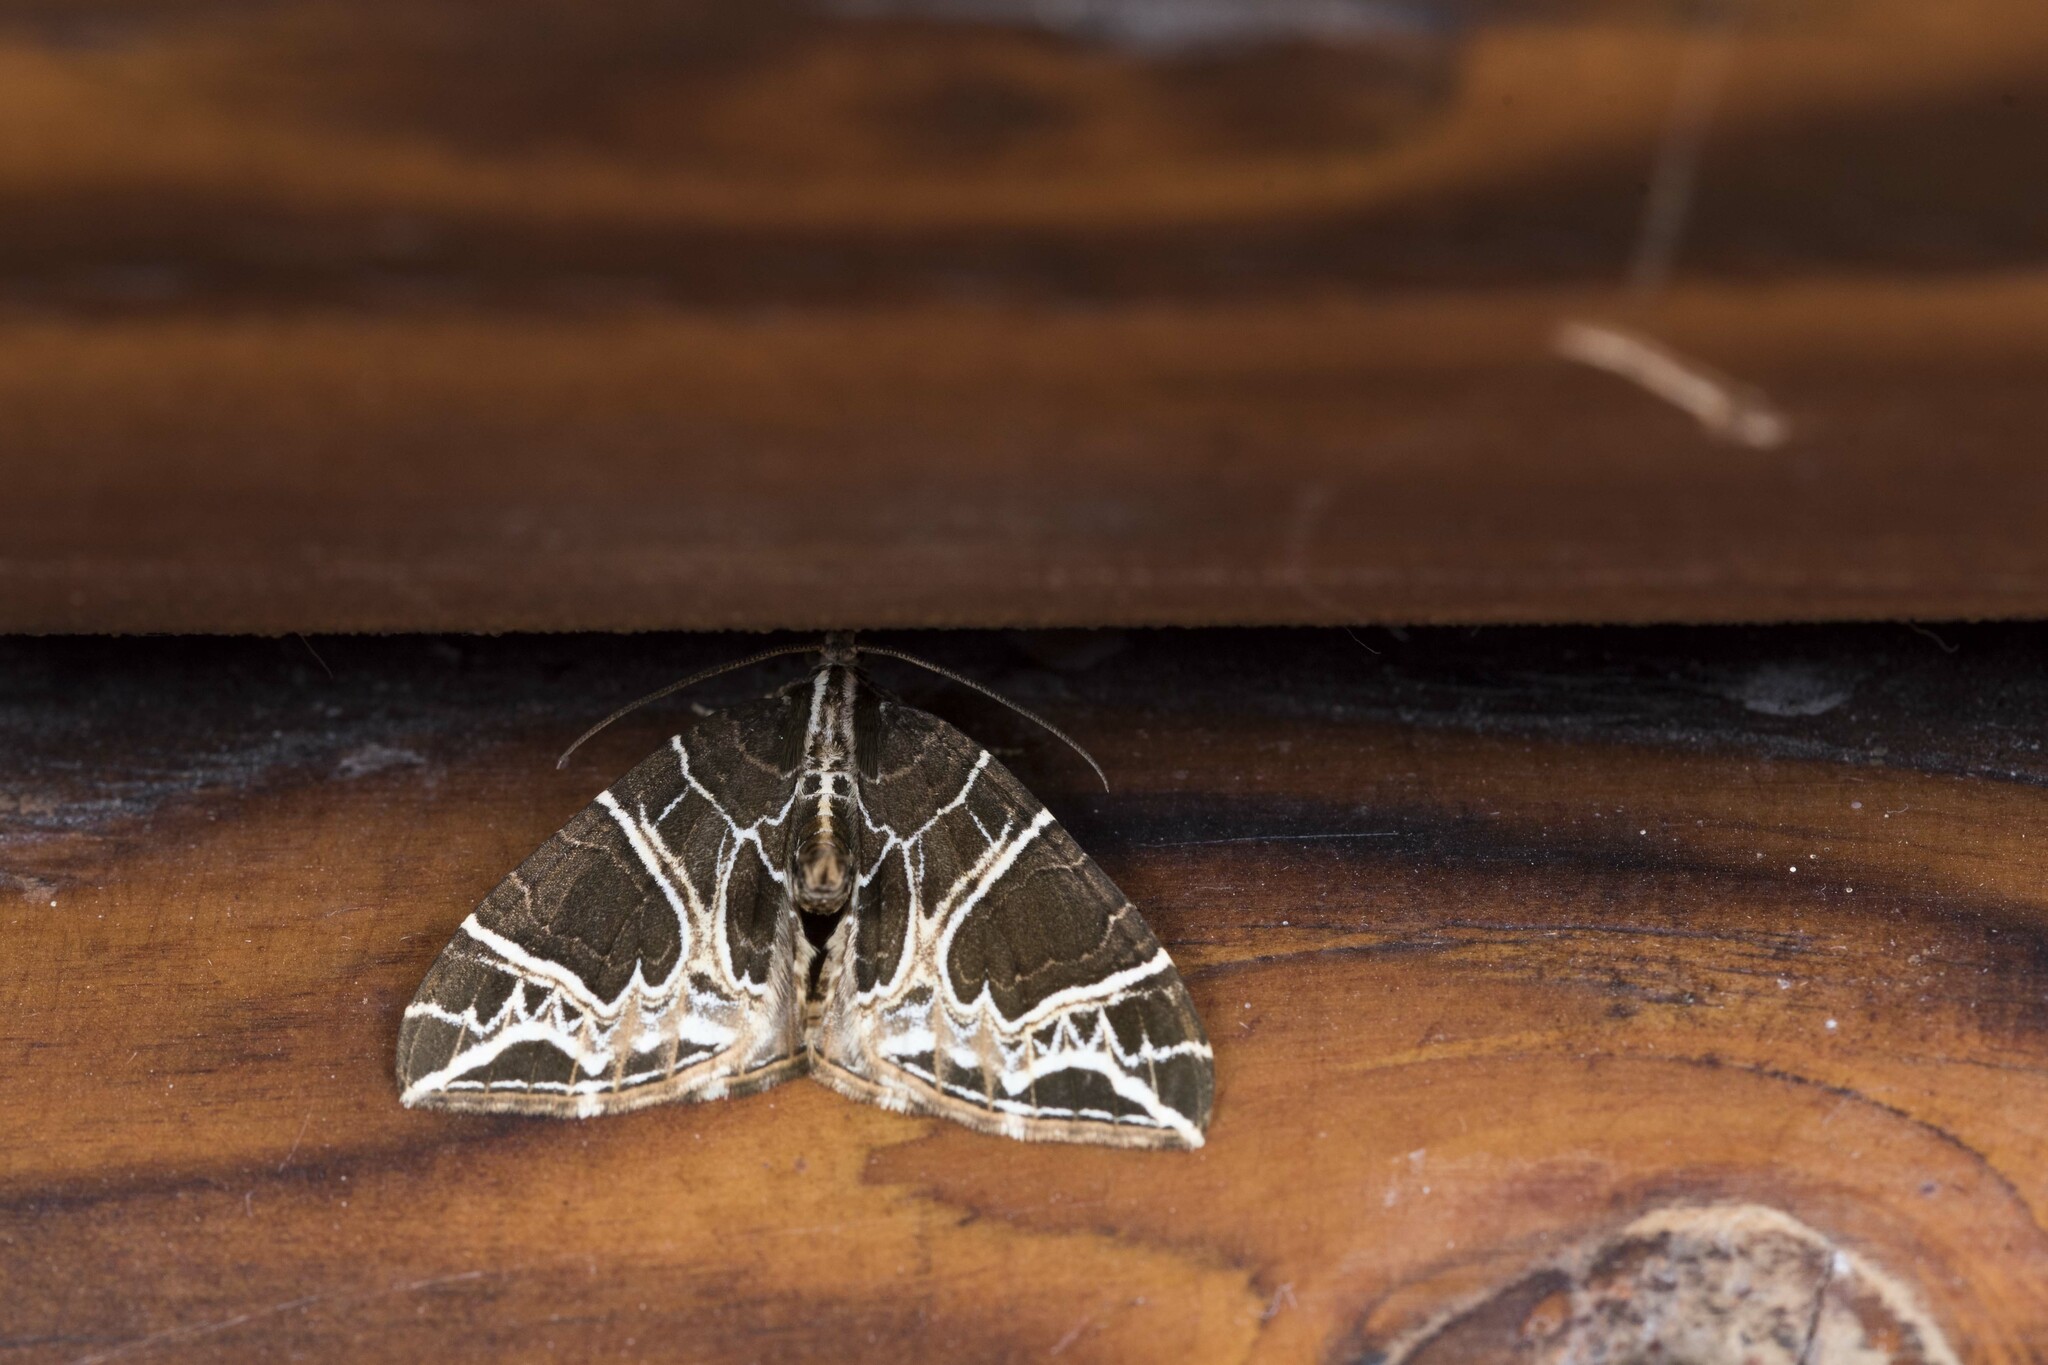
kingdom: Animalia
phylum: Arthropoda
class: Insecta
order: Lepidoptera
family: Geometridae
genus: Ecliptopera
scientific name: Ecliptopera delecta
